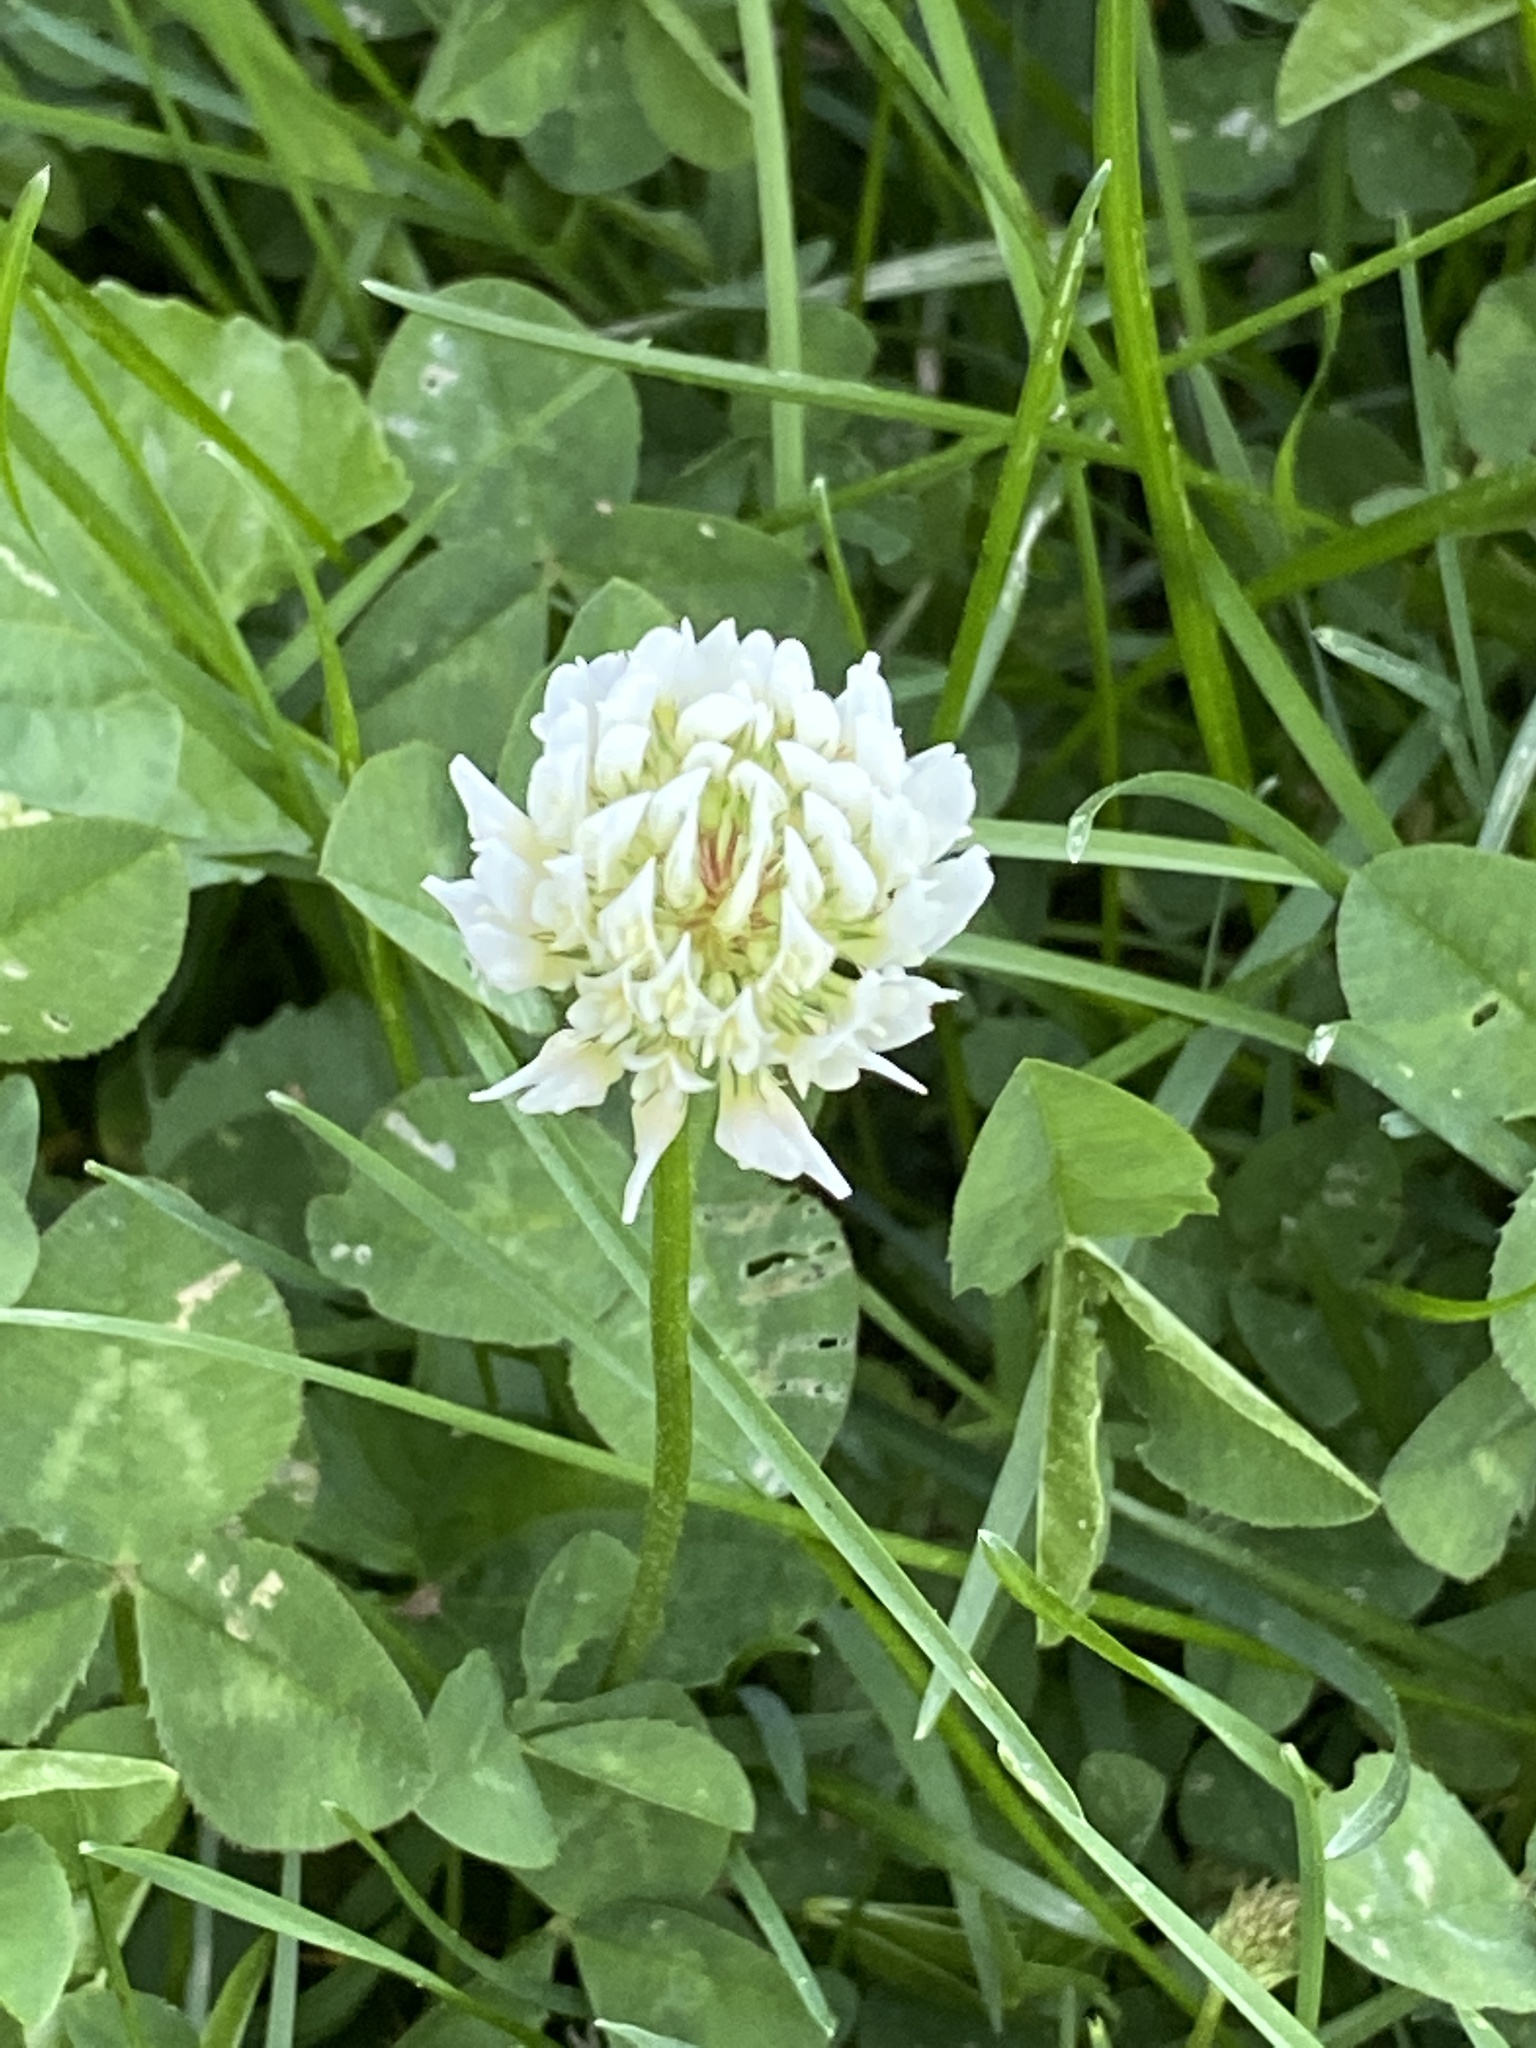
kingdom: Plantae
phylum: Tracheophyta
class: Magnoliopsida
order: Fabales
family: Fabaceae
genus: Trifolium
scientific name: Trifolium repens
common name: White clover
